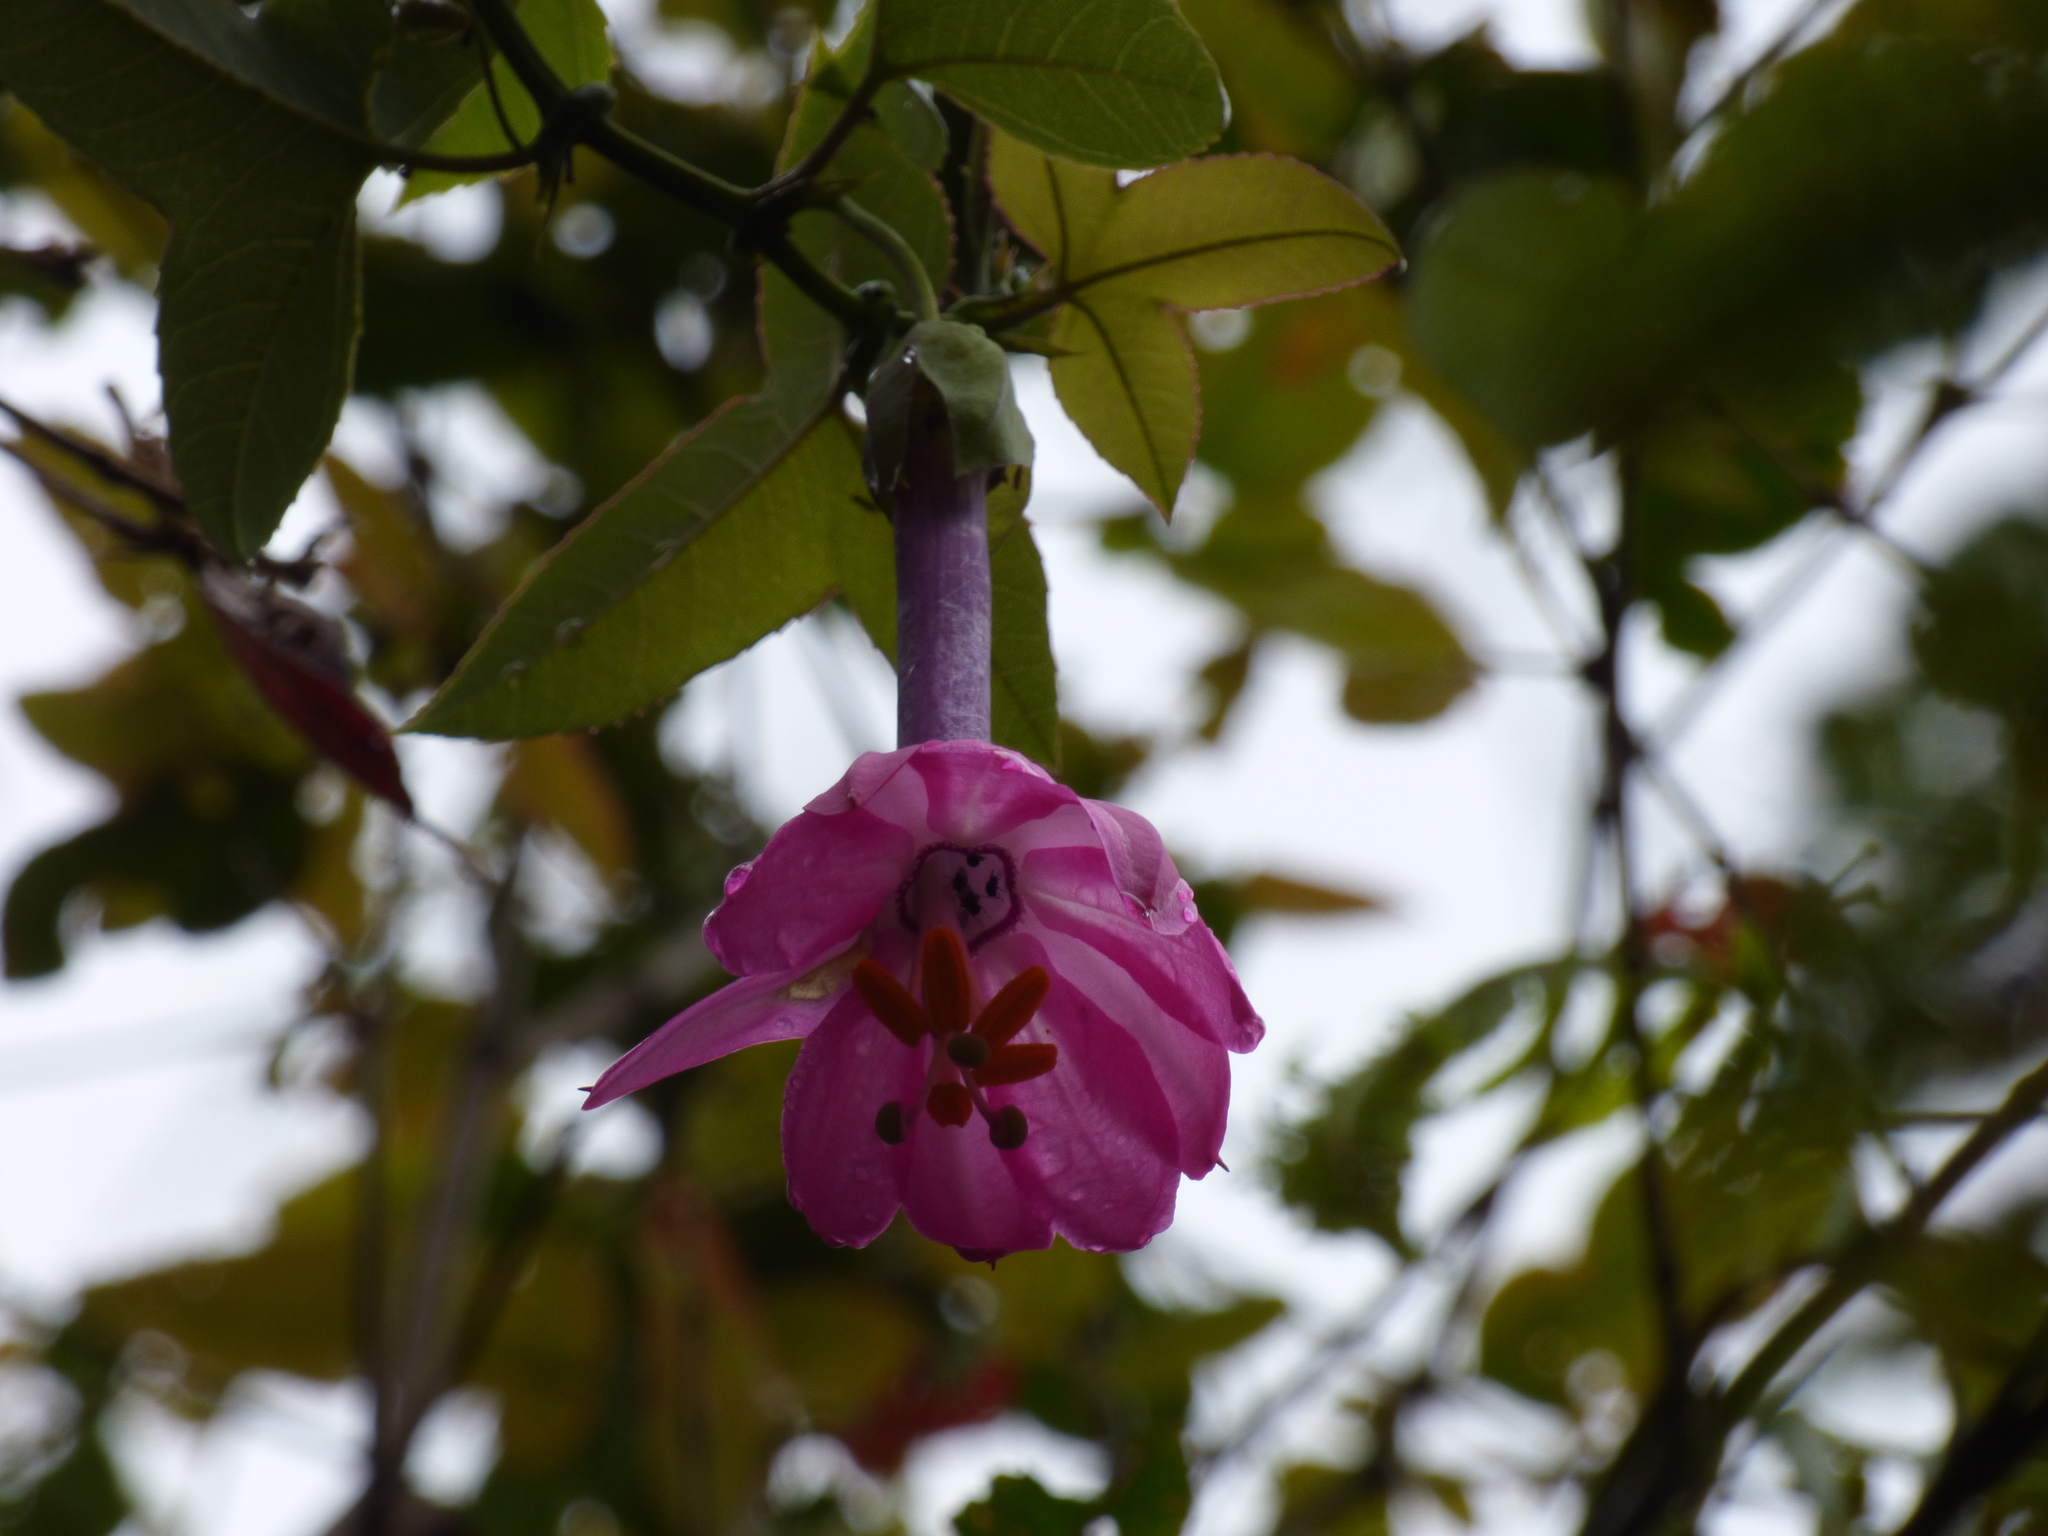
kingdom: Plantae
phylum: Tracheophyta
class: Magnoliopsida
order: Malpighiales
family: Passifloraceae
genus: Passiflora
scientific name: Passiflora cumbalensis
